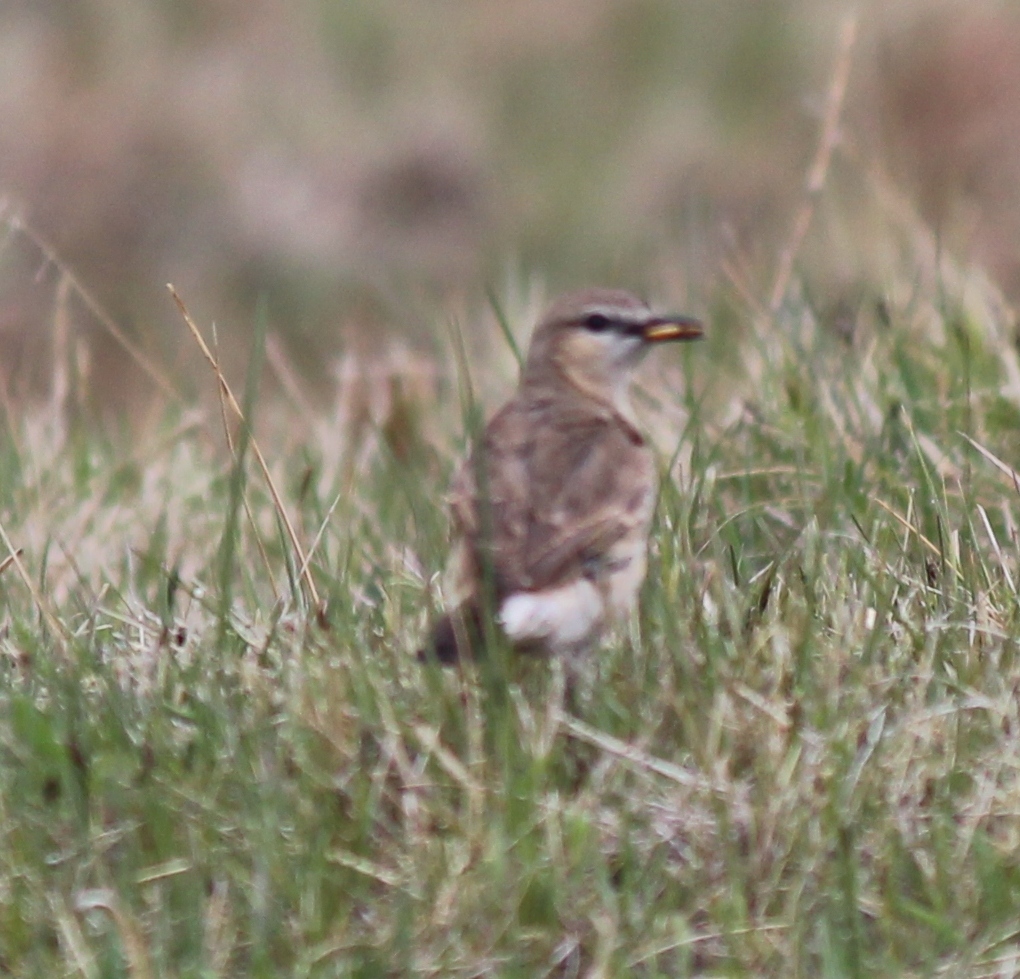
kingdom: Animalia
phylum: Chordata
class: Aves
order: Passeriformes
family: Muscicapidae
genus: Oenanthe
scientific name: Oenanthe isabellina
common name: Isabelline wheatear
